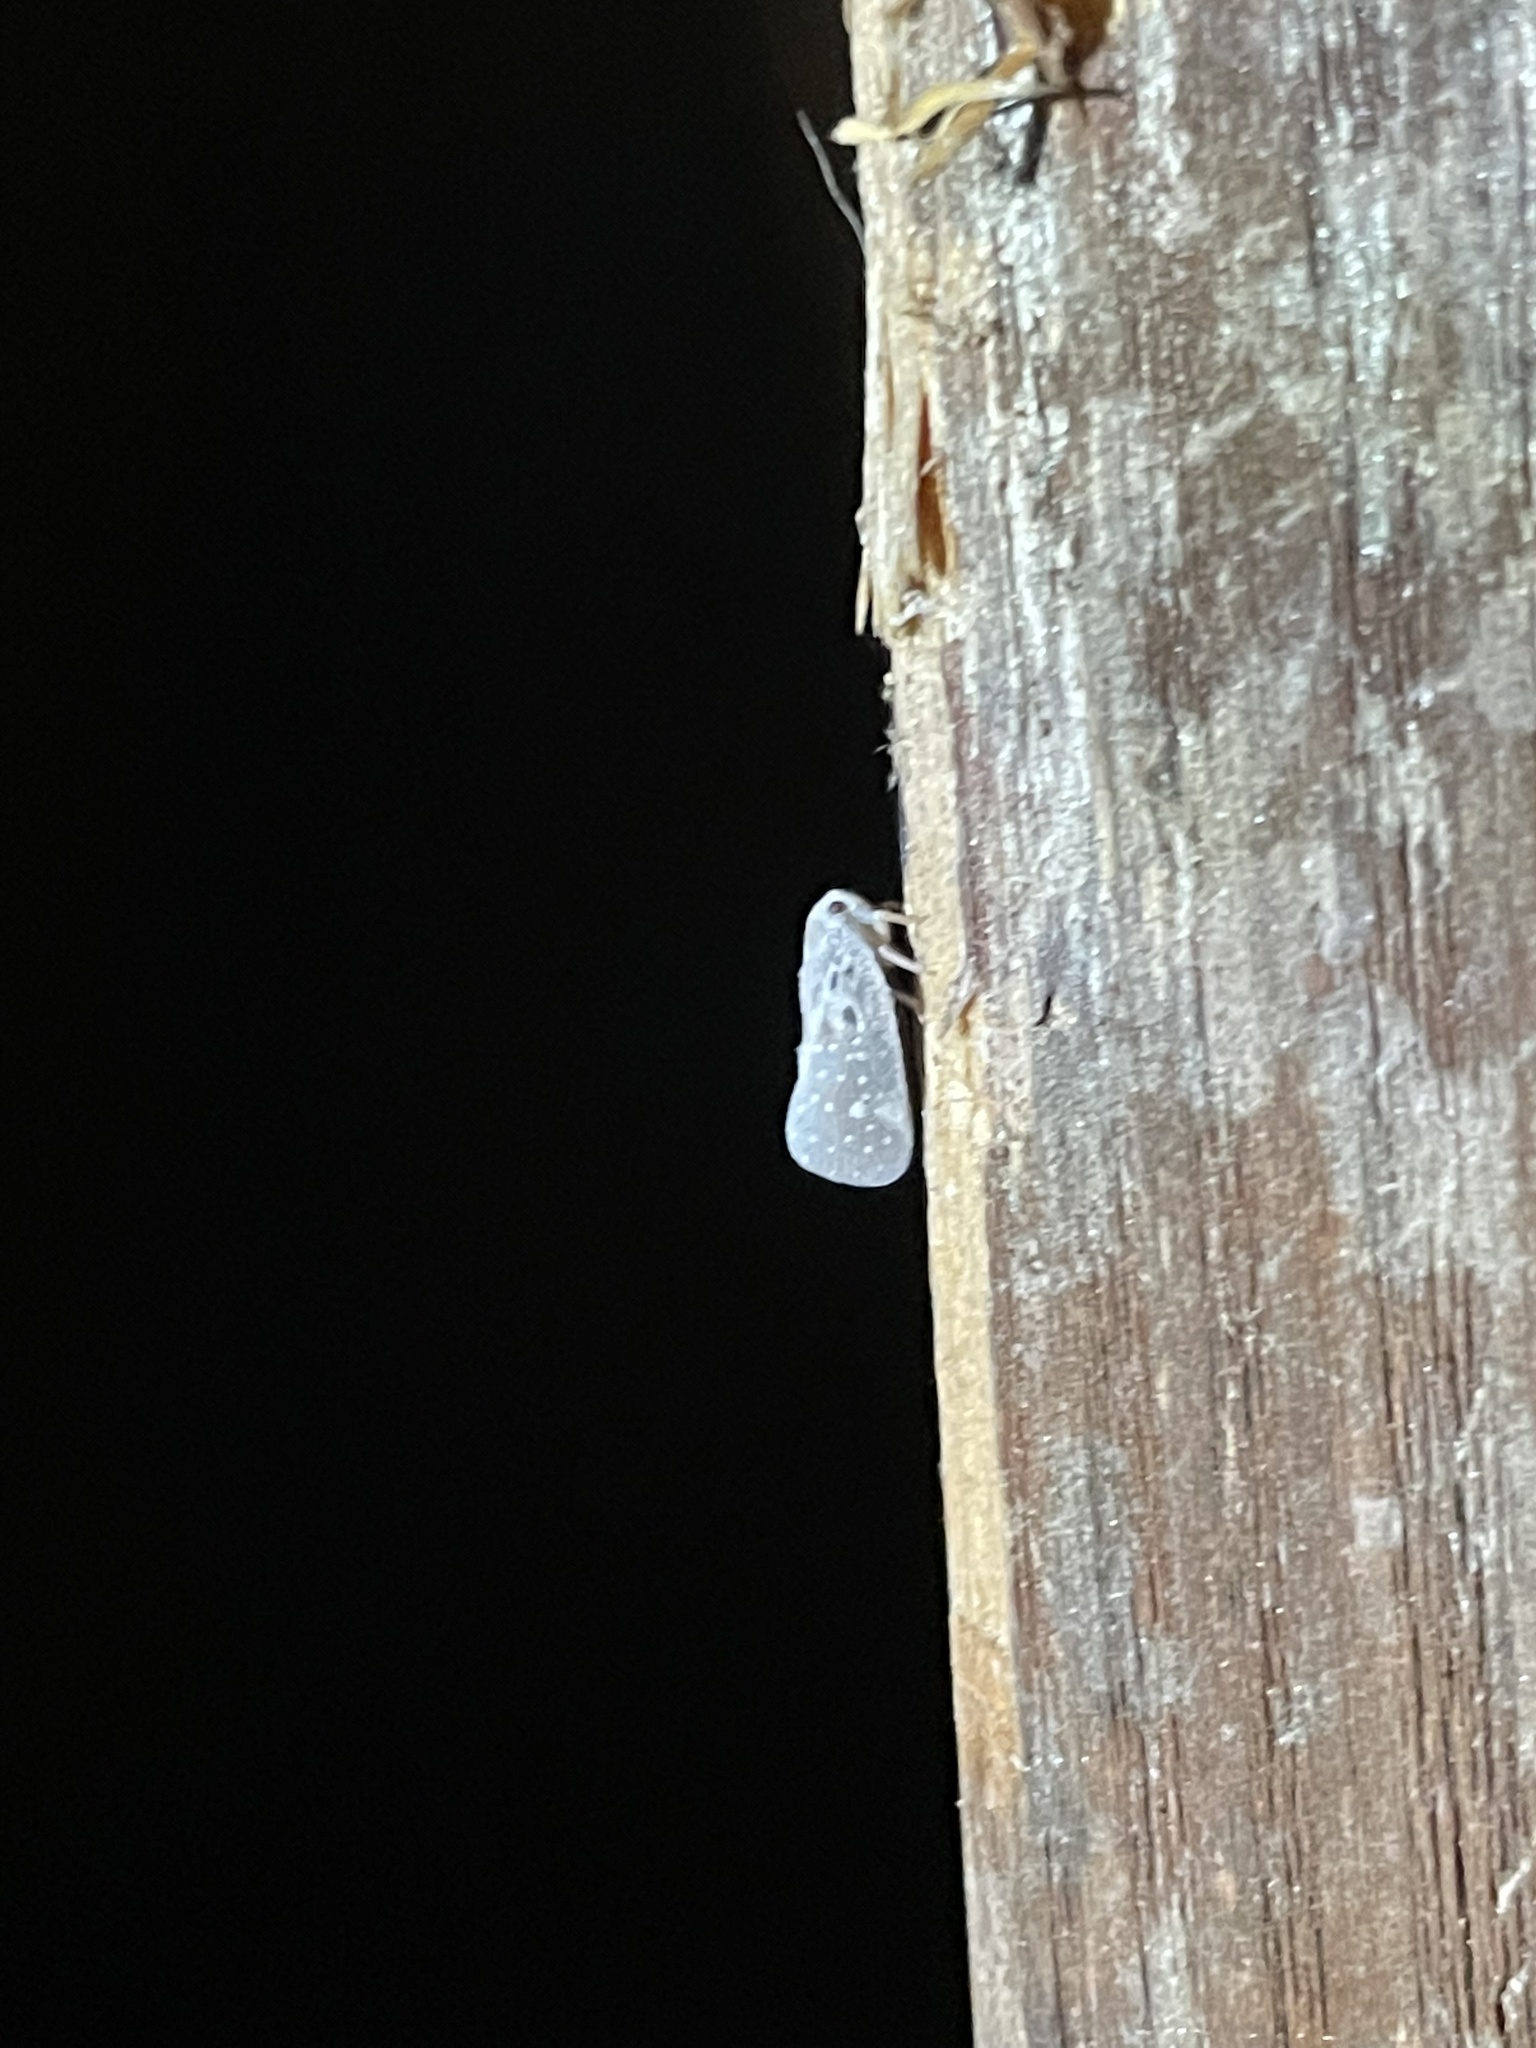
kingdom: Animalia
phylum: Arthropoda
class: Insecta
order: Hemiptera
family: Flatidae
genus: Metcalfa
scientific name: Metcalfa pruinosa
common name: Citrus flatid planthopper
